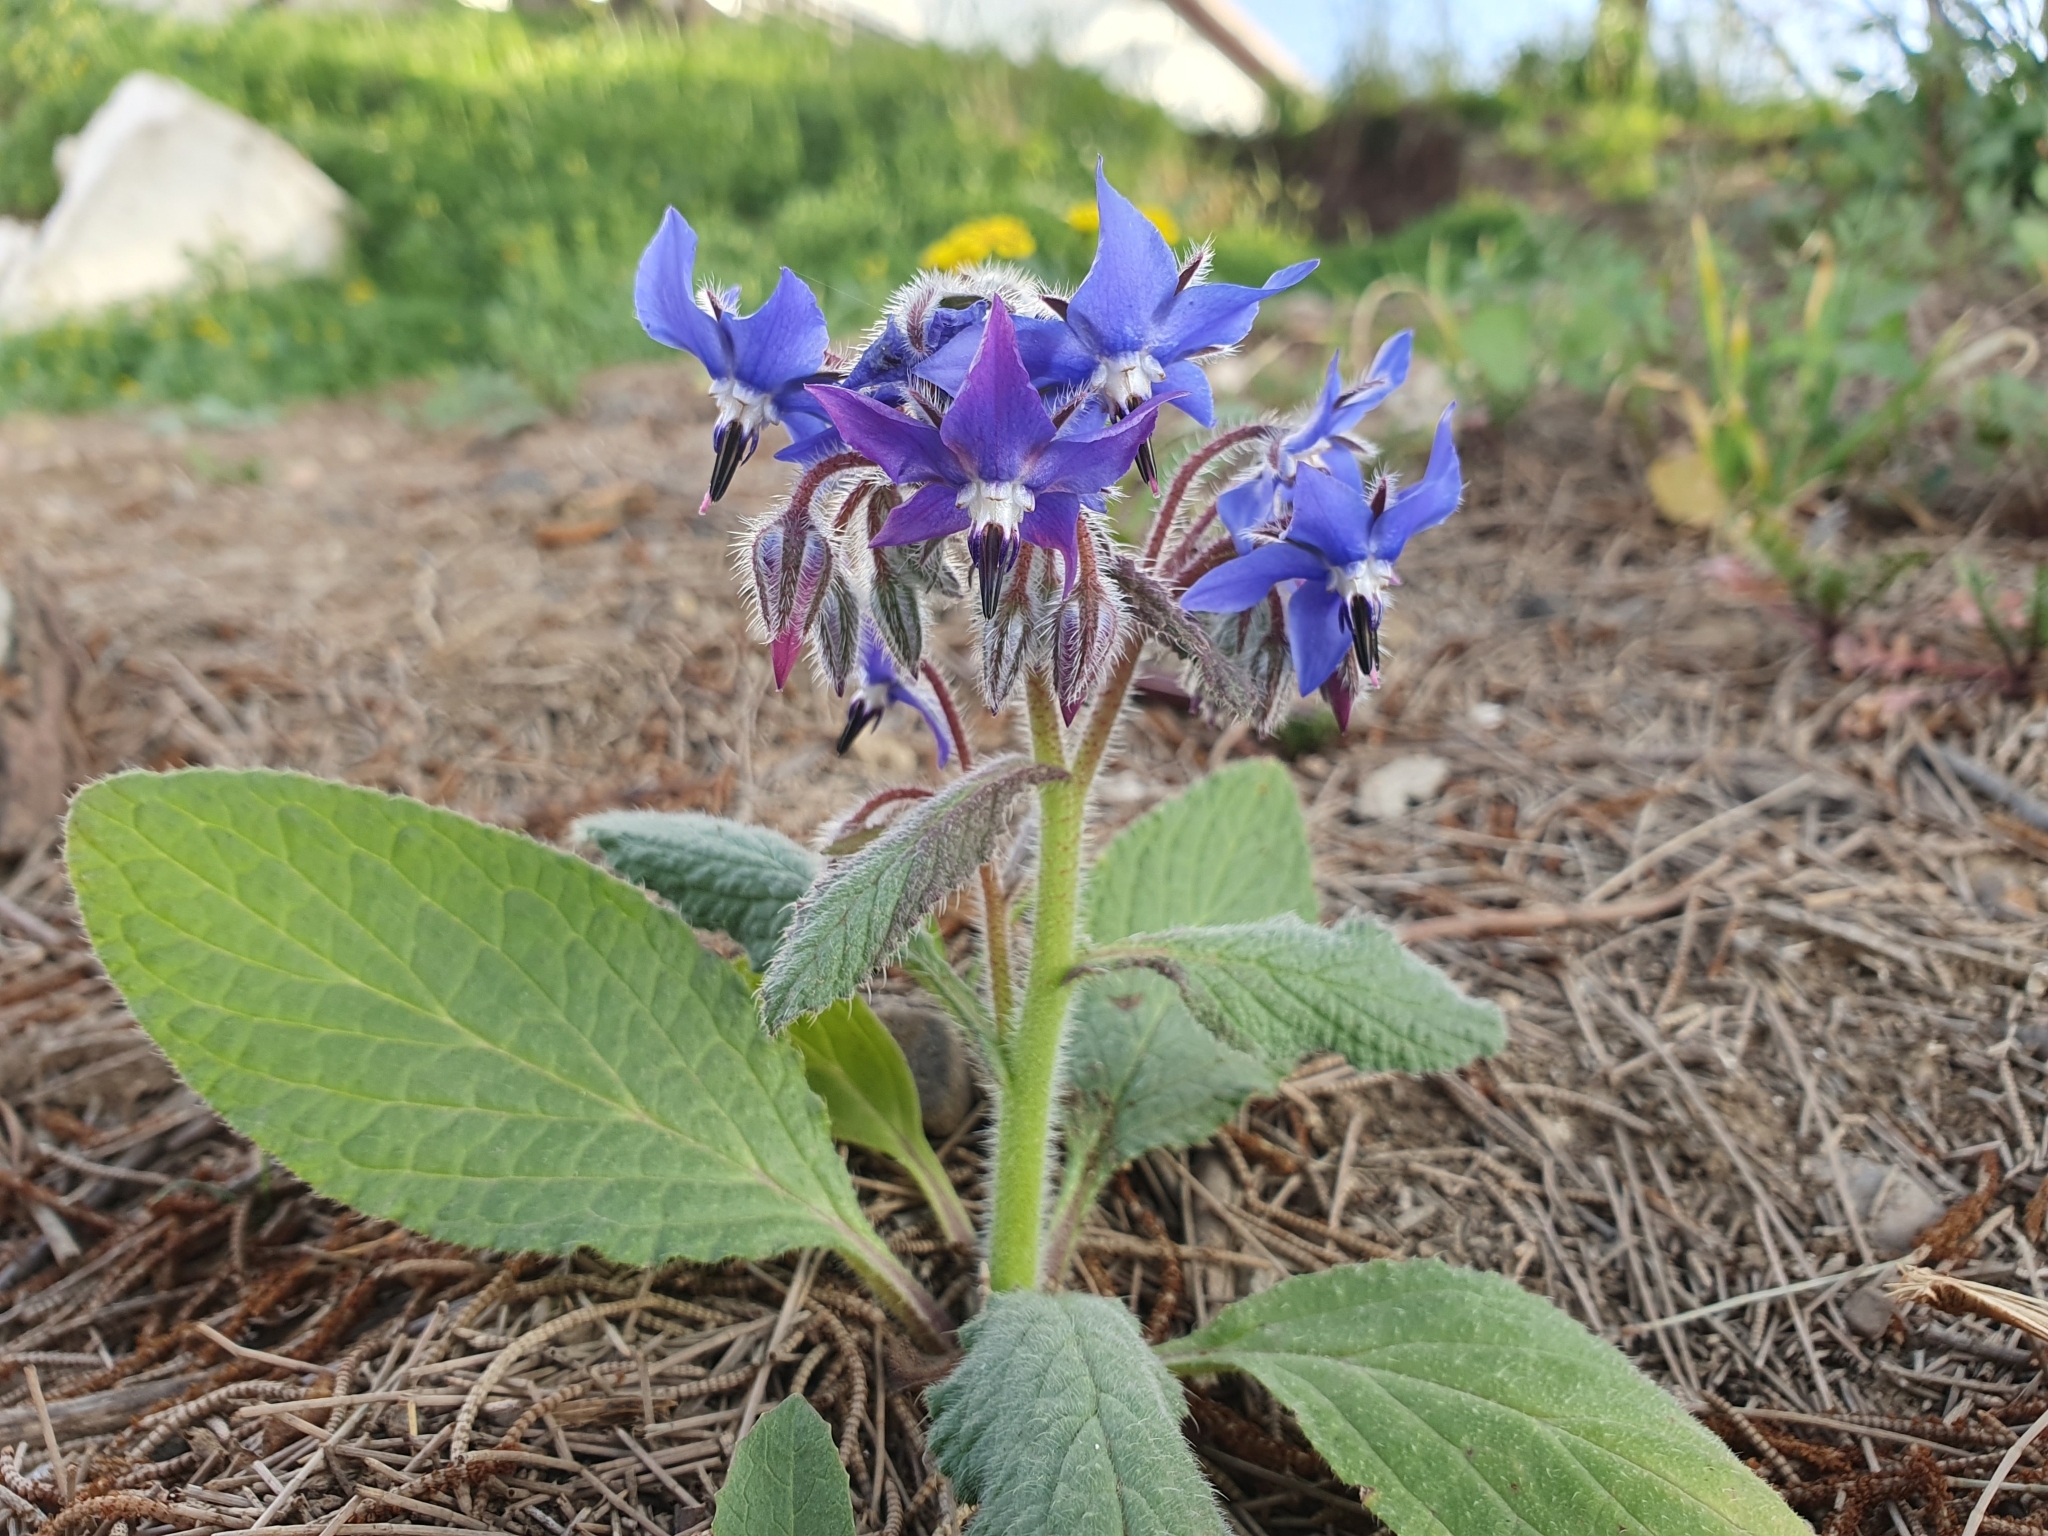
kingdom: Plantae
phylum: Tracheophyta
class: Magnoliopsida
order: Boraginales
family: Boraginaceae
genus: Borago
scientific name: Borago officinalis
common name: Borage
